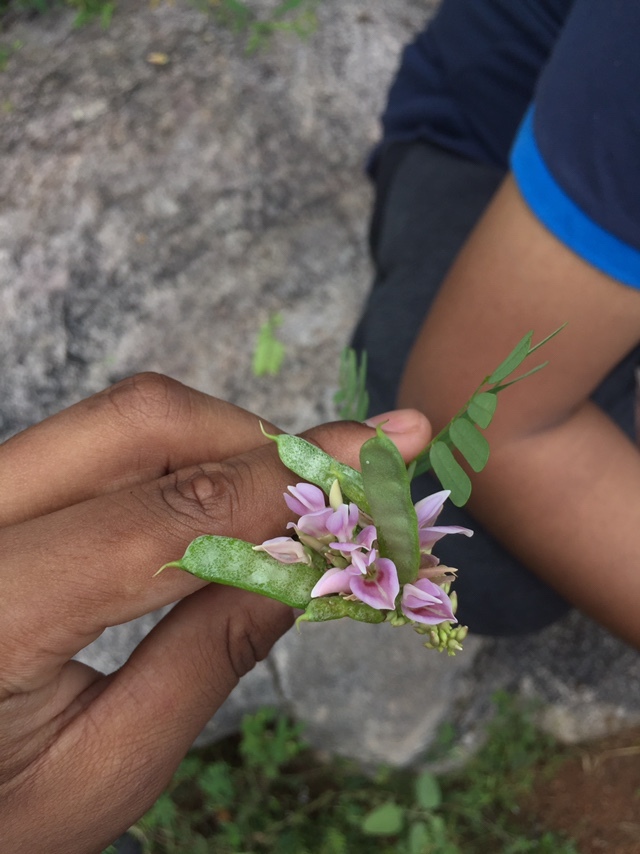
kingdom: Plantae
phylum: Tracheophyta
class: Magnoliopsida
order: Fabales
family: Fabaceae
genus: Abrus
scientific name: Abrus precatorius
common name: Rosarypea
